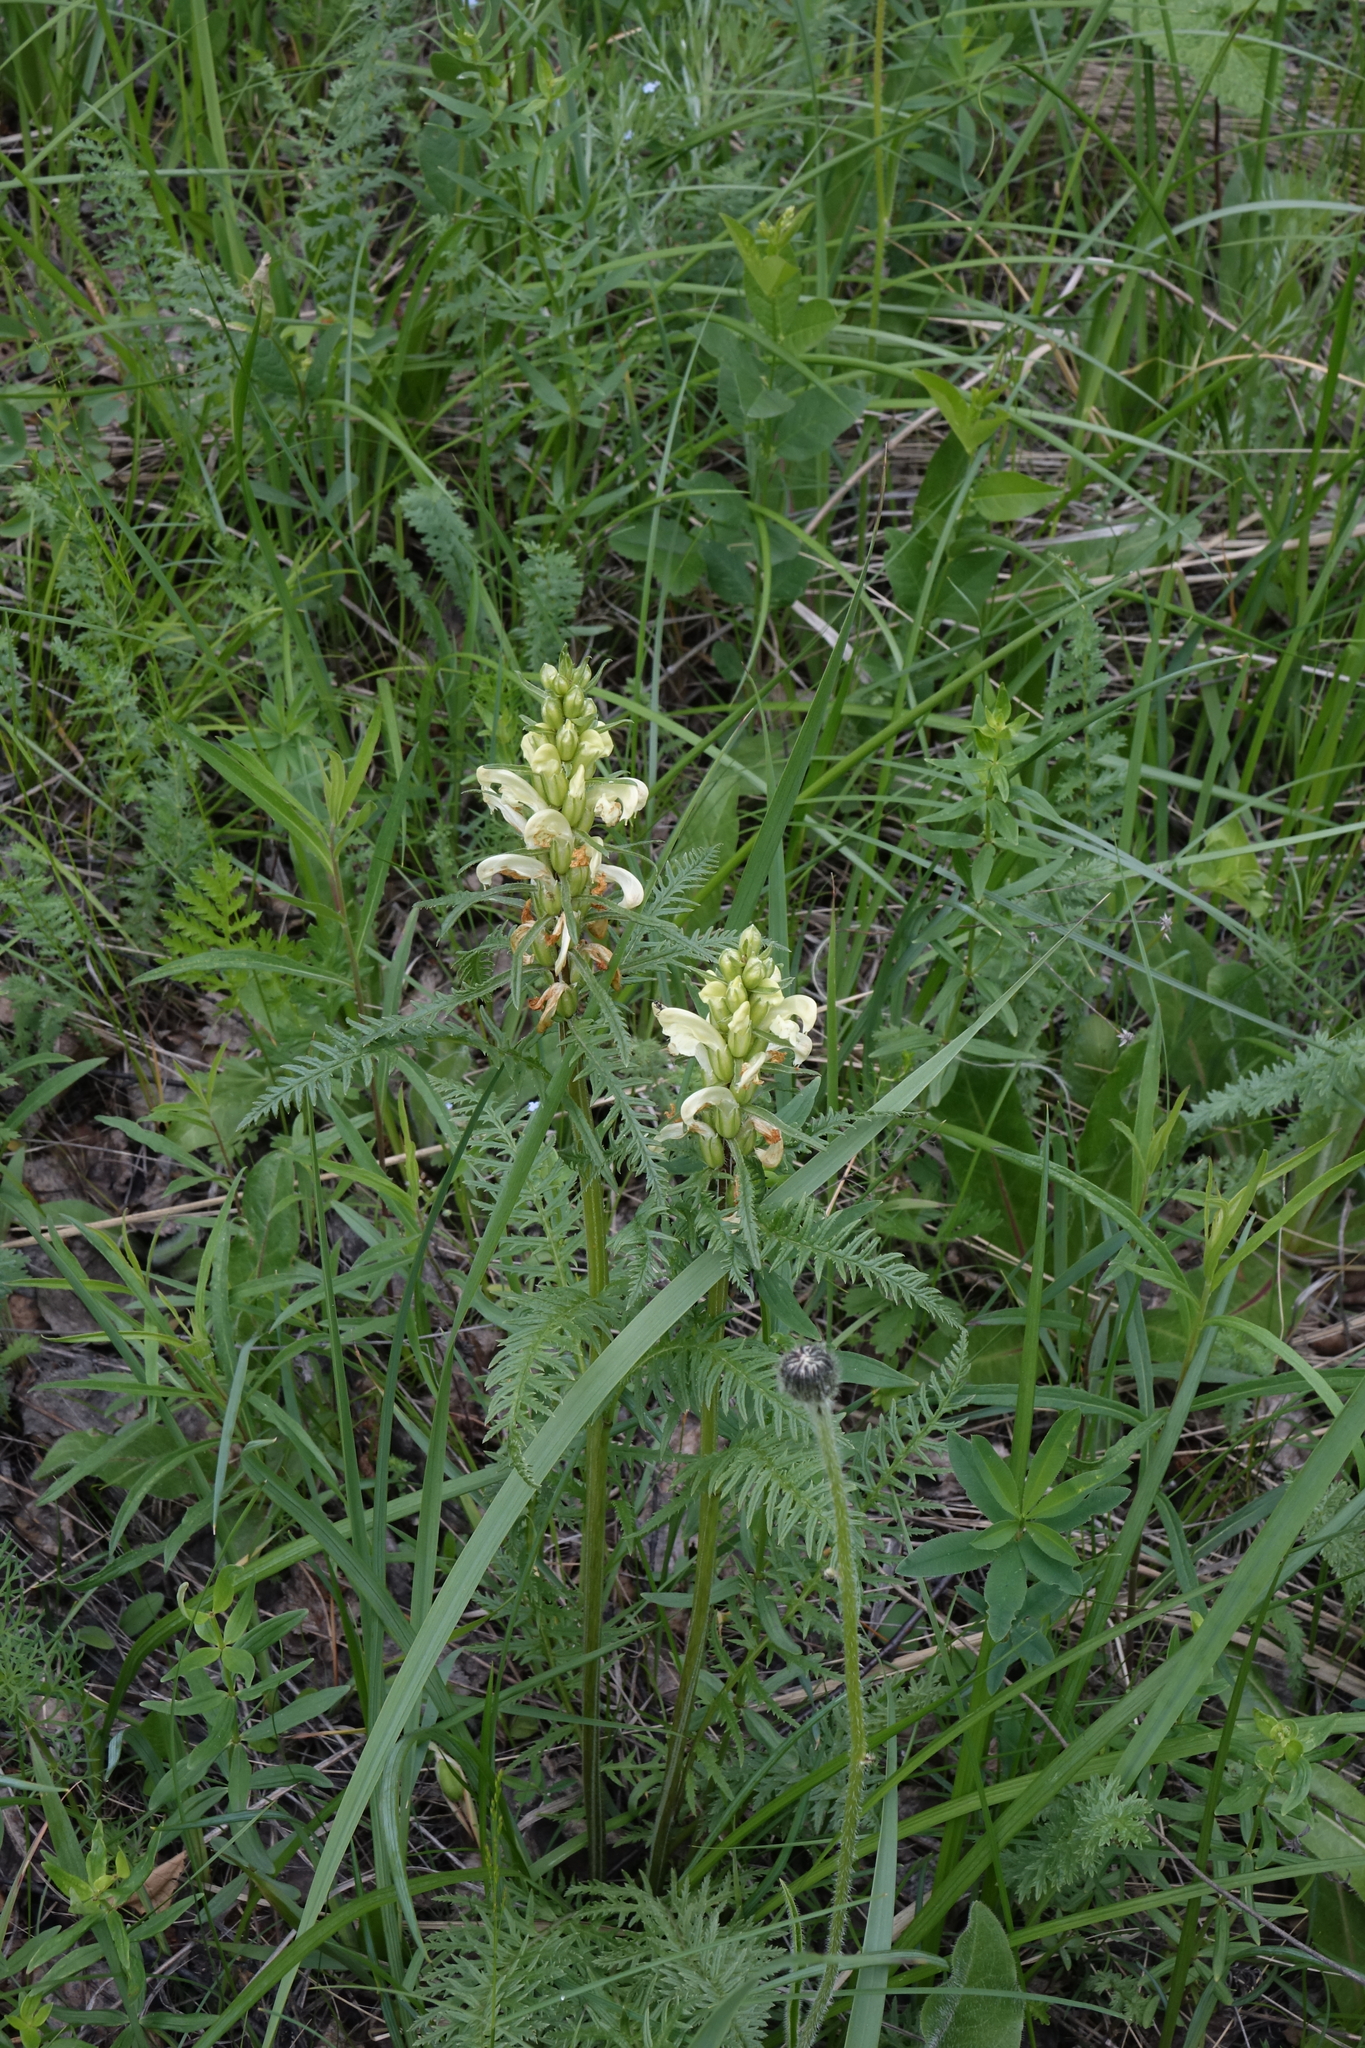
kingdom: Plantae
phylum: Tracheophyta
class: Magnoliopsida
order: Lamiales
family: Orobanchaceae
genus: Pedicularis
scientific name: Pedicularis sibirica
